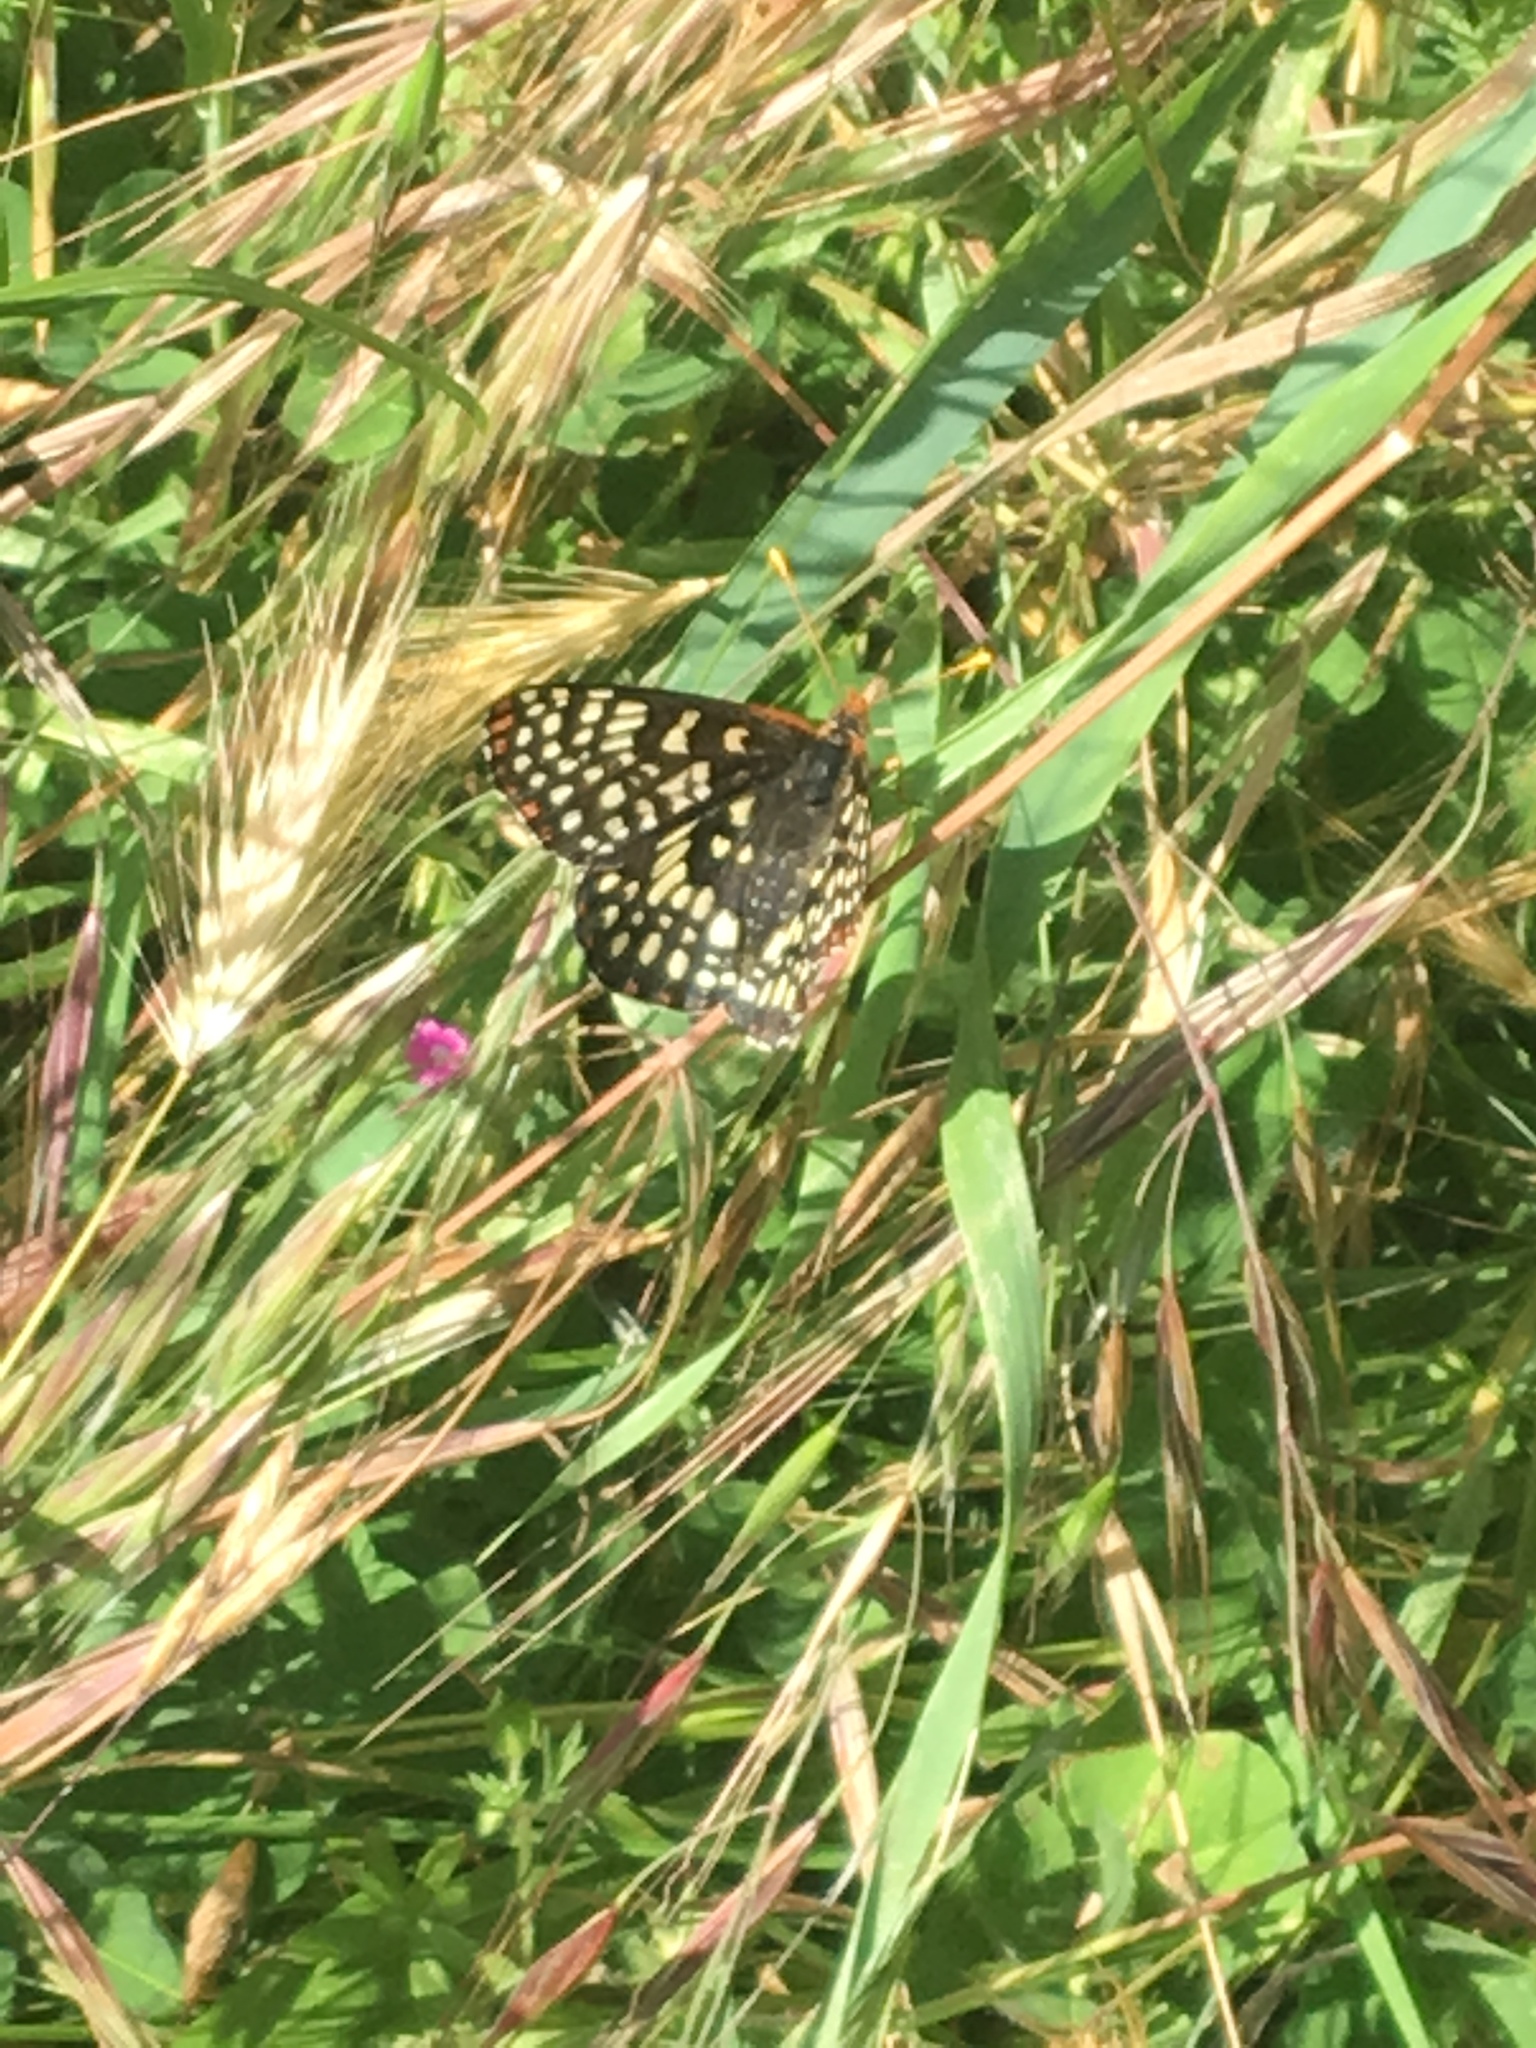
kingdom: Animalia
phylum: Arthropoda
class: Insecta
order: Lepidoptera
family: Nymphalidae
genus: Occidryas
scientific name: Occidryas chalcedona
